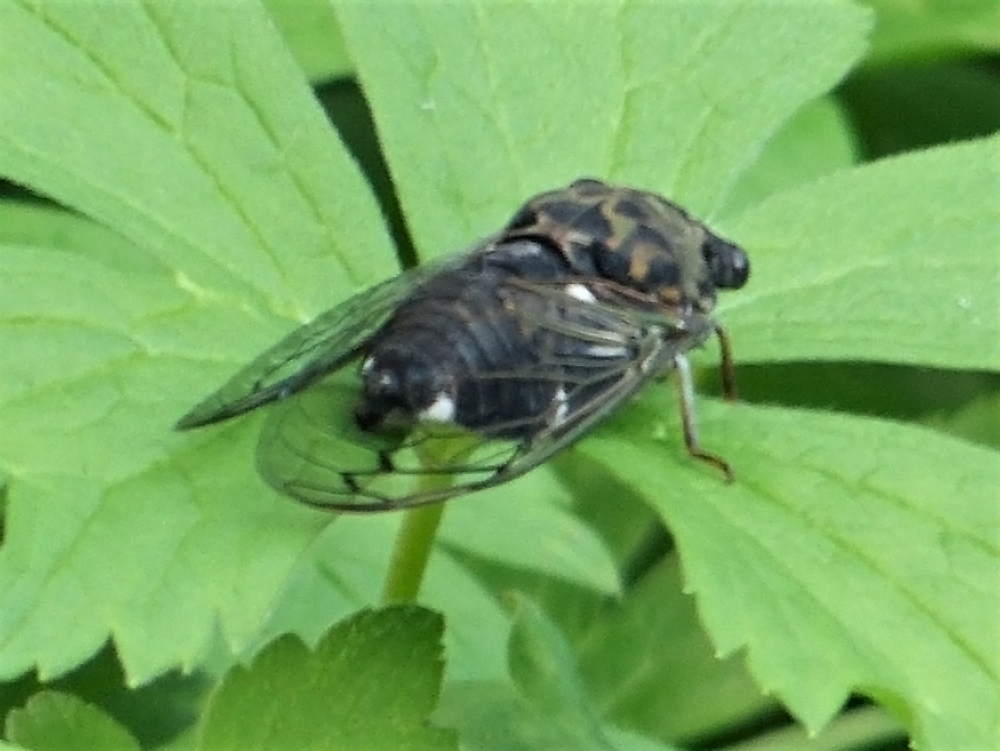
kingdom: Animalia
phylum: Arthropoda
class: Insecta
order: Hemiptera
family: Cicadidae
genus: Neotibicen
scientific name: Neotibicen pruinosus
